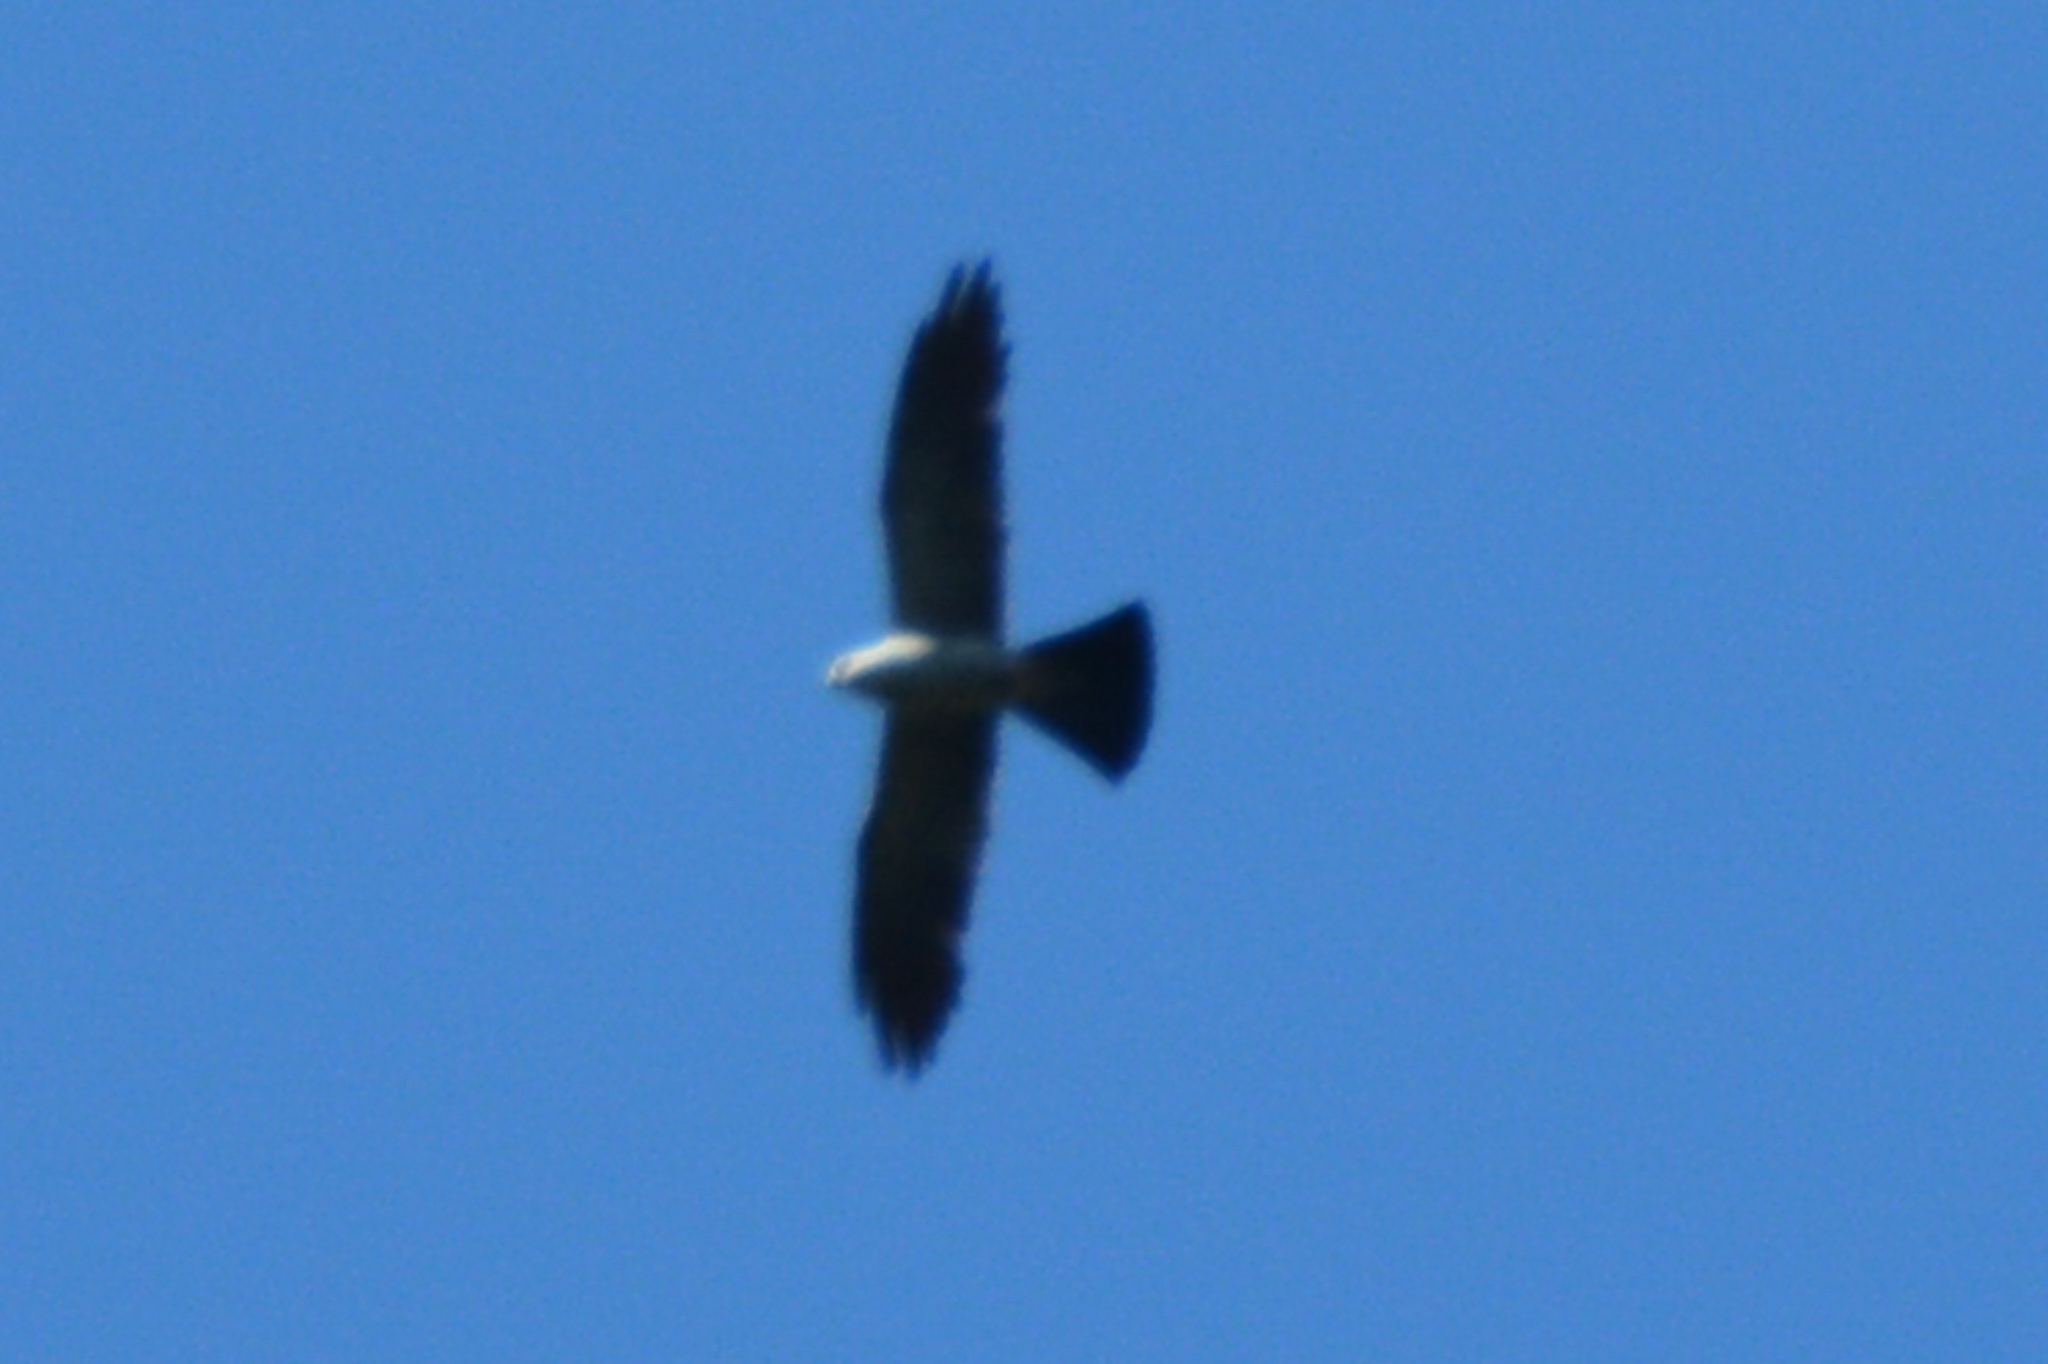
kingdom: Animalia
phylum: Chordata
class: Aves
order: Accipitriformes
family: Accipitridae
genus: Ictinia
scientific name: Ictinia mississippiensis
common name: Mississippi kite
